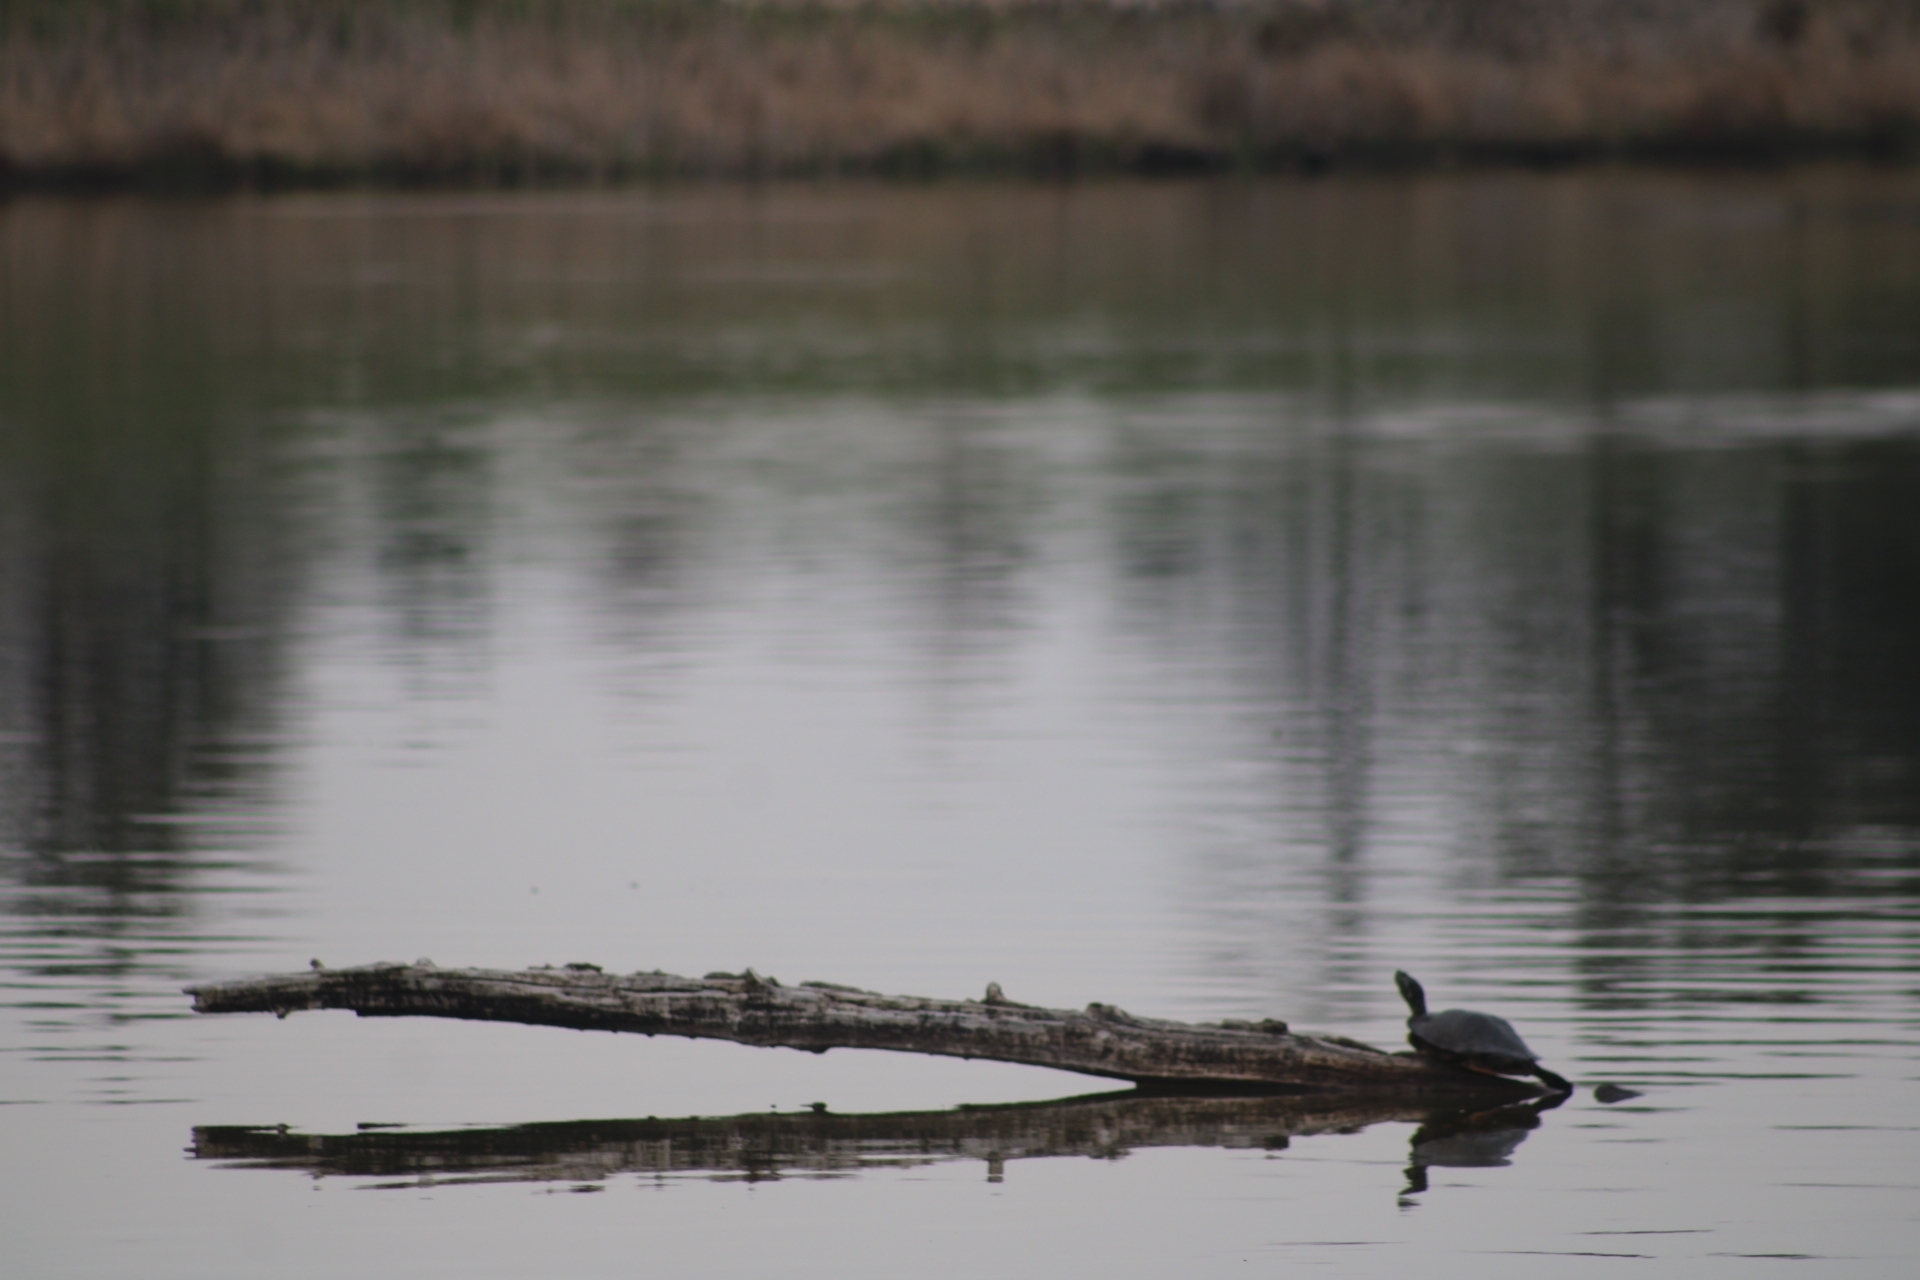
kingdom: Animalia
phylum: Chordata
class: Testudines
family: Emydidae
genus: Chrysemys
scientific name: Chrysemys picta
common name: Painted turtle
